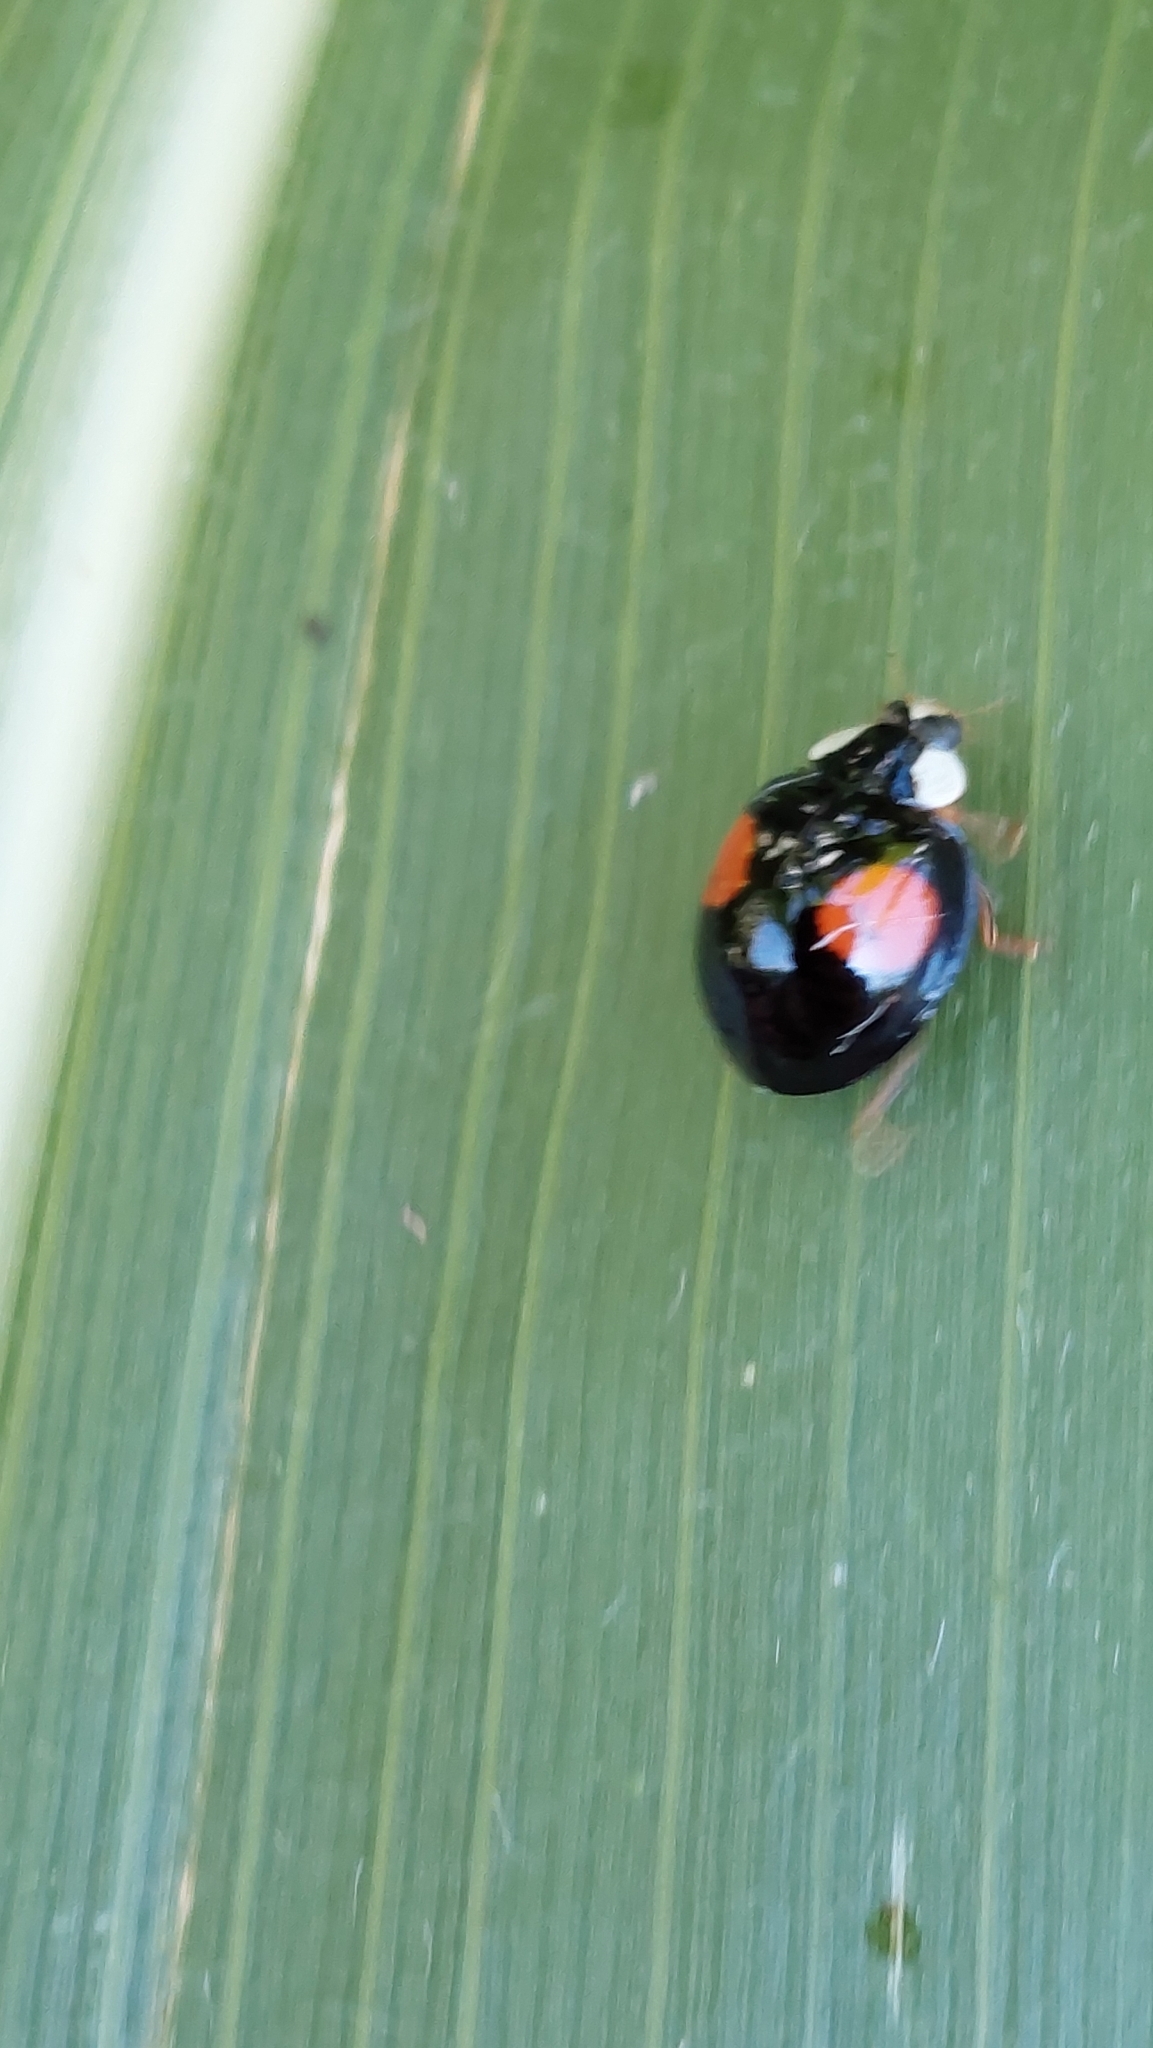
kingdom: Animalia
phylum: Arthropoda
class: Insecta
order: Coleoptera
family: Coccinellidae
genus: Harmonia
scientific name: Harmonia axyridis
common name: Harlequin ladybird
